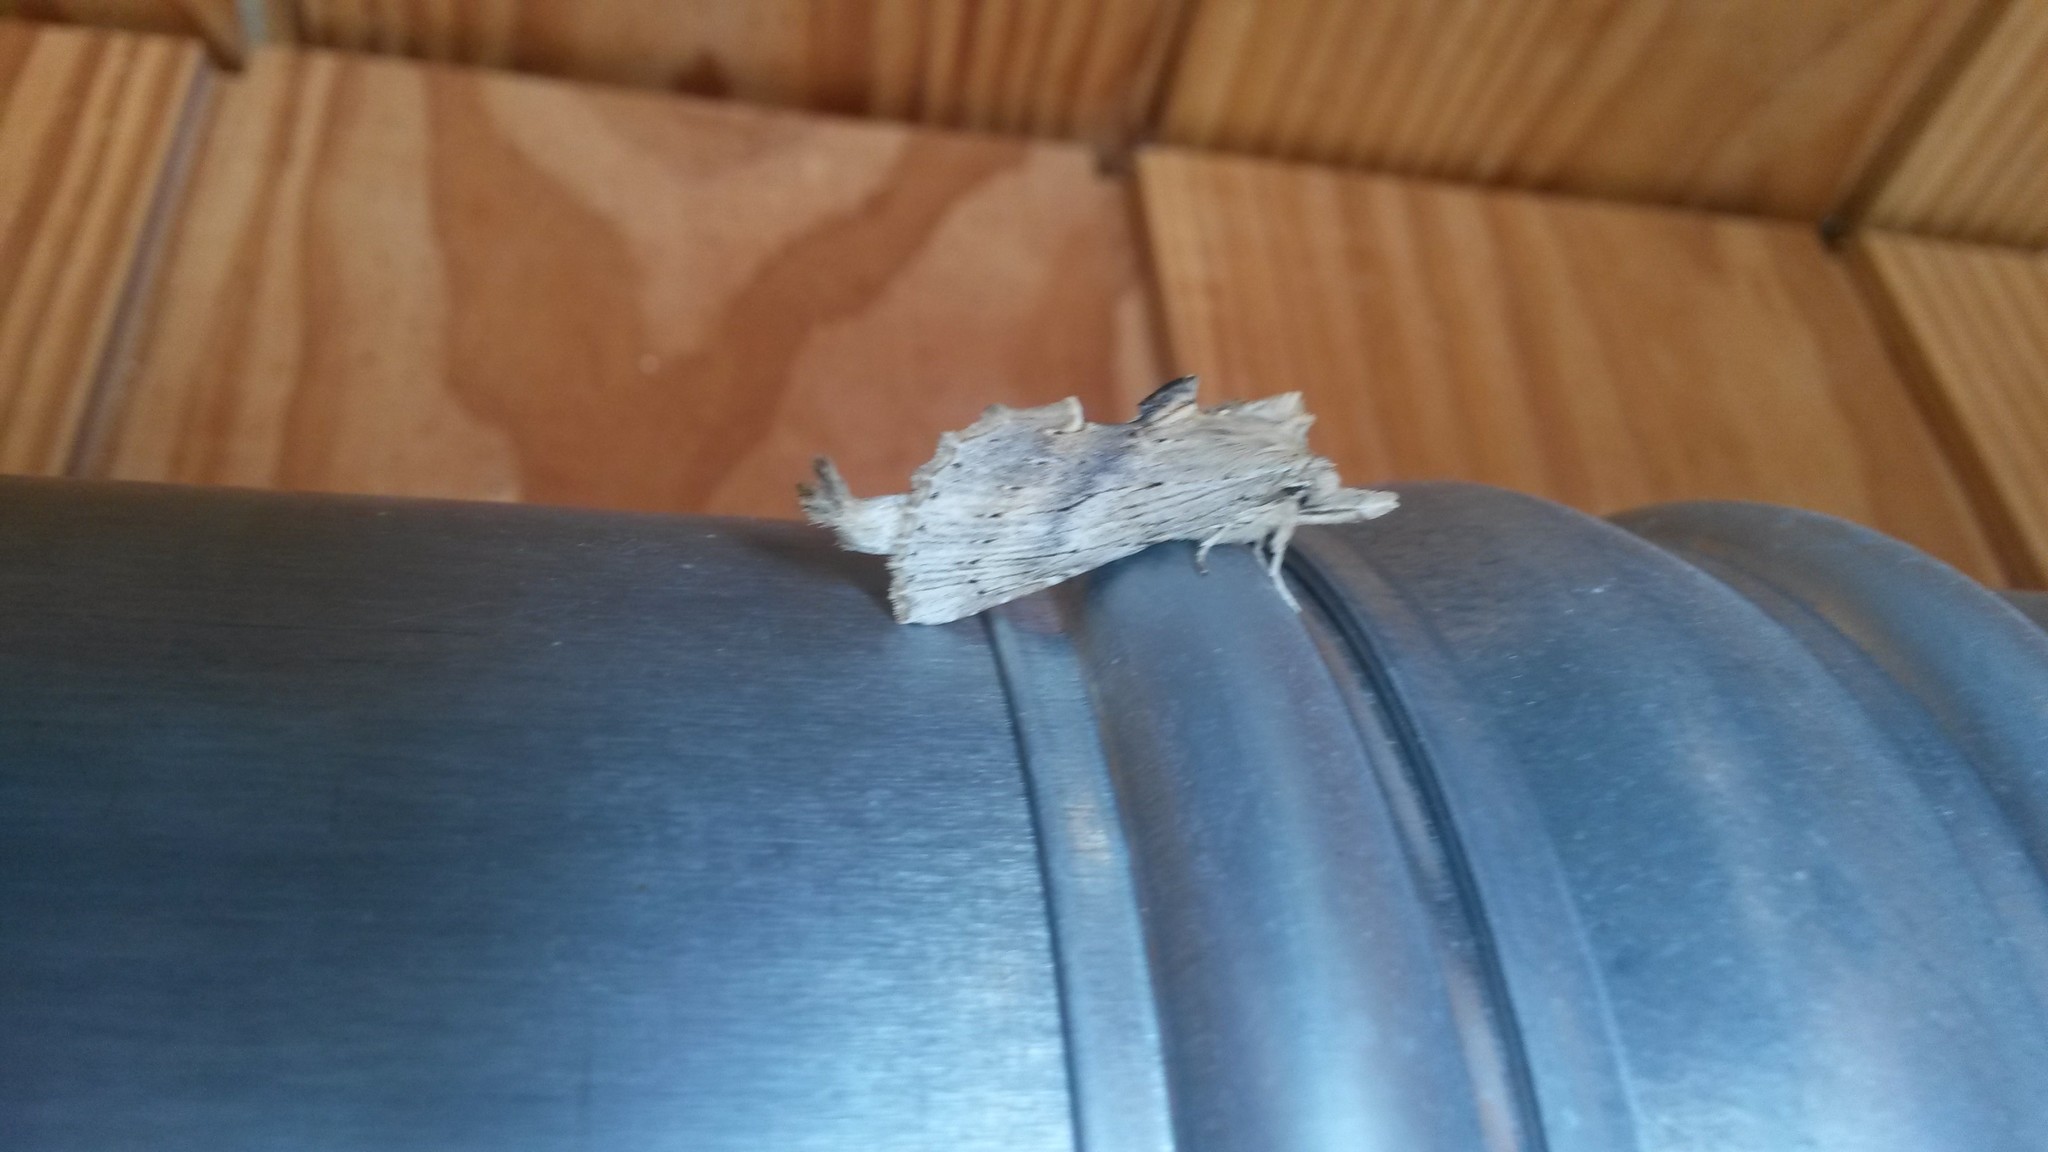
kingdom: Animalia
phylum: Arthropoda
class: Insecta
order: Lepidoptera
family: Notodontidae
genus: Pterostoma
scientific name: Pterostoma palpina
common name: Pale prominent
